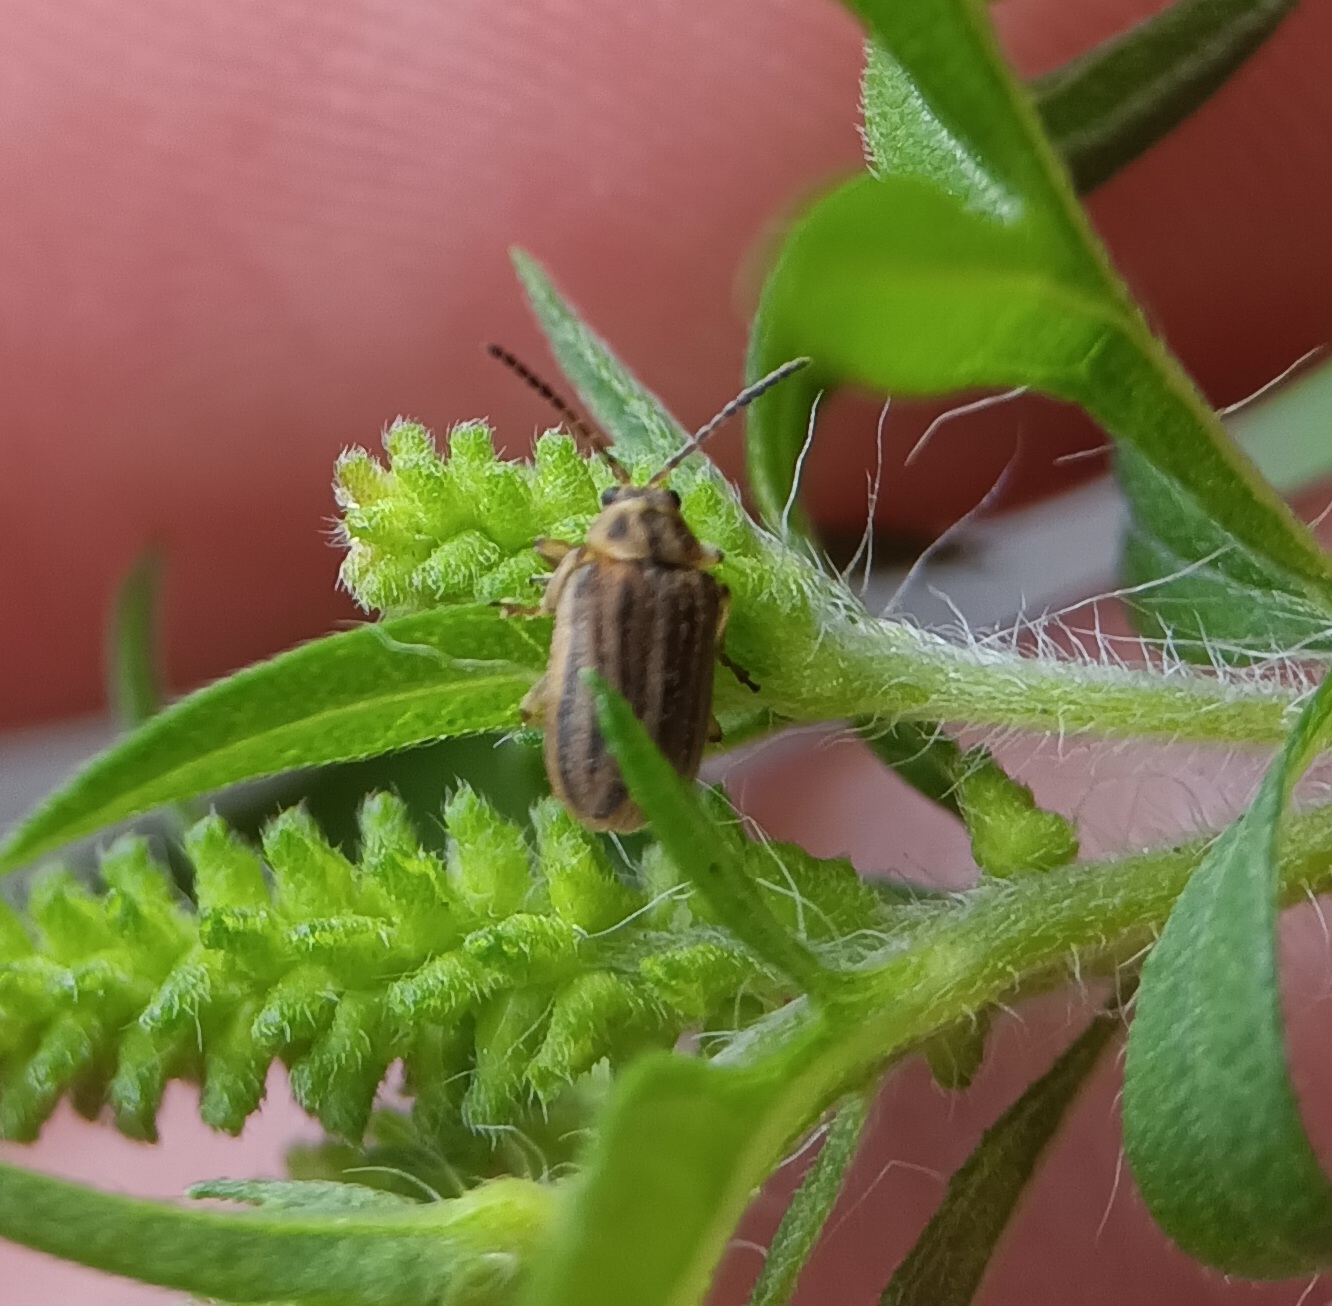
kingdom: Animalia
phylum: Arthropoda
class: Insecta
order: Coleoptera
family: Chrysomelidae
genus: Ophraella
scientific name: Ophraella communa
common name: Ragweed leaf beetle
